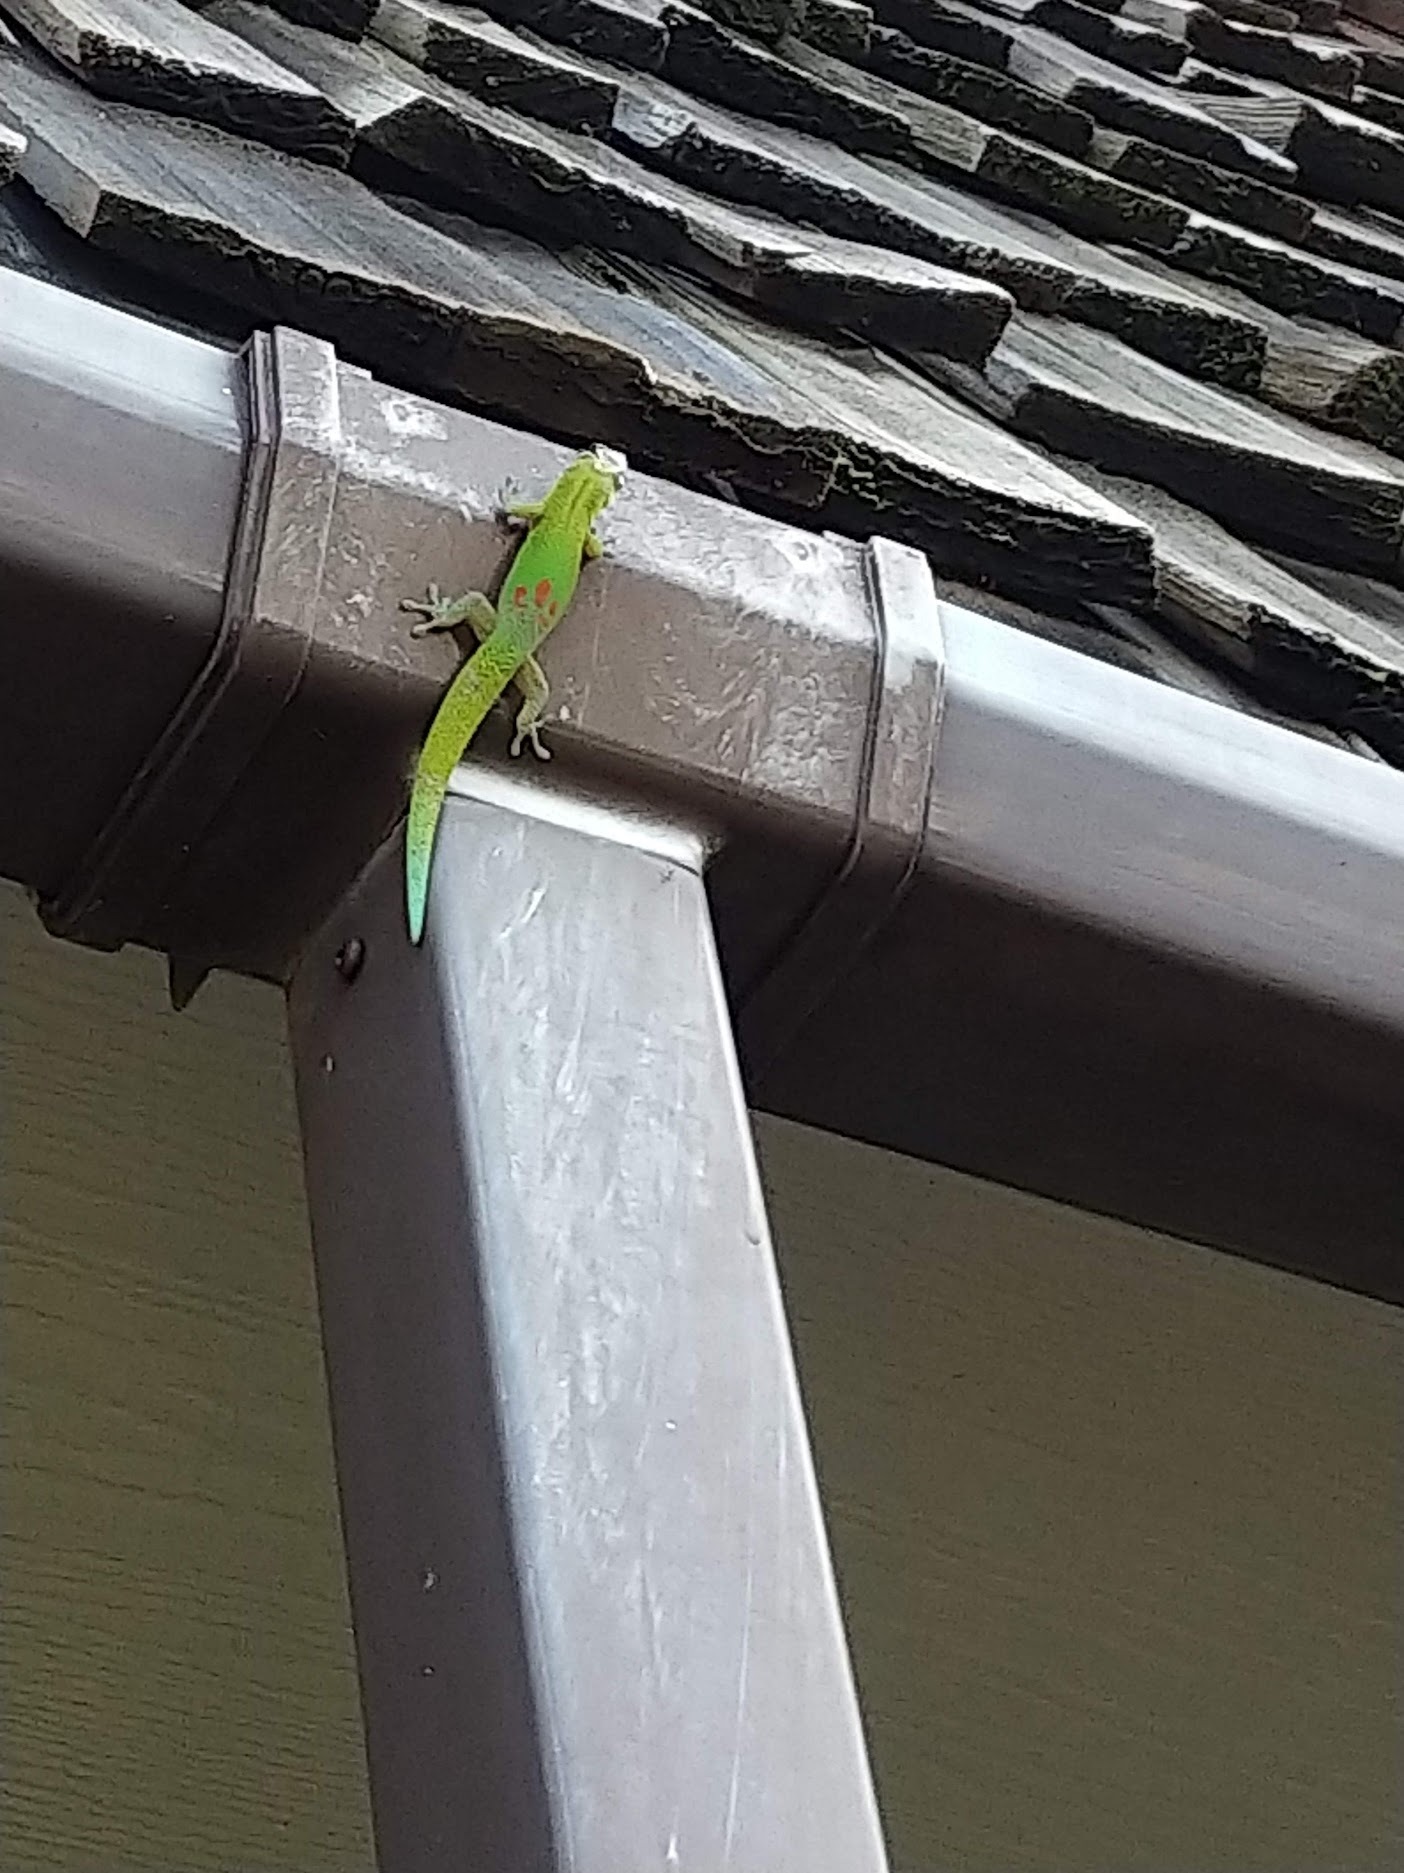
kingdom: Animalia
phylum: Chordata
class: Squamata
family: Gekkonidae
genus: Phelsuma
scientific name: Phelsuma laticauda
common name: Gold dust day gecko
